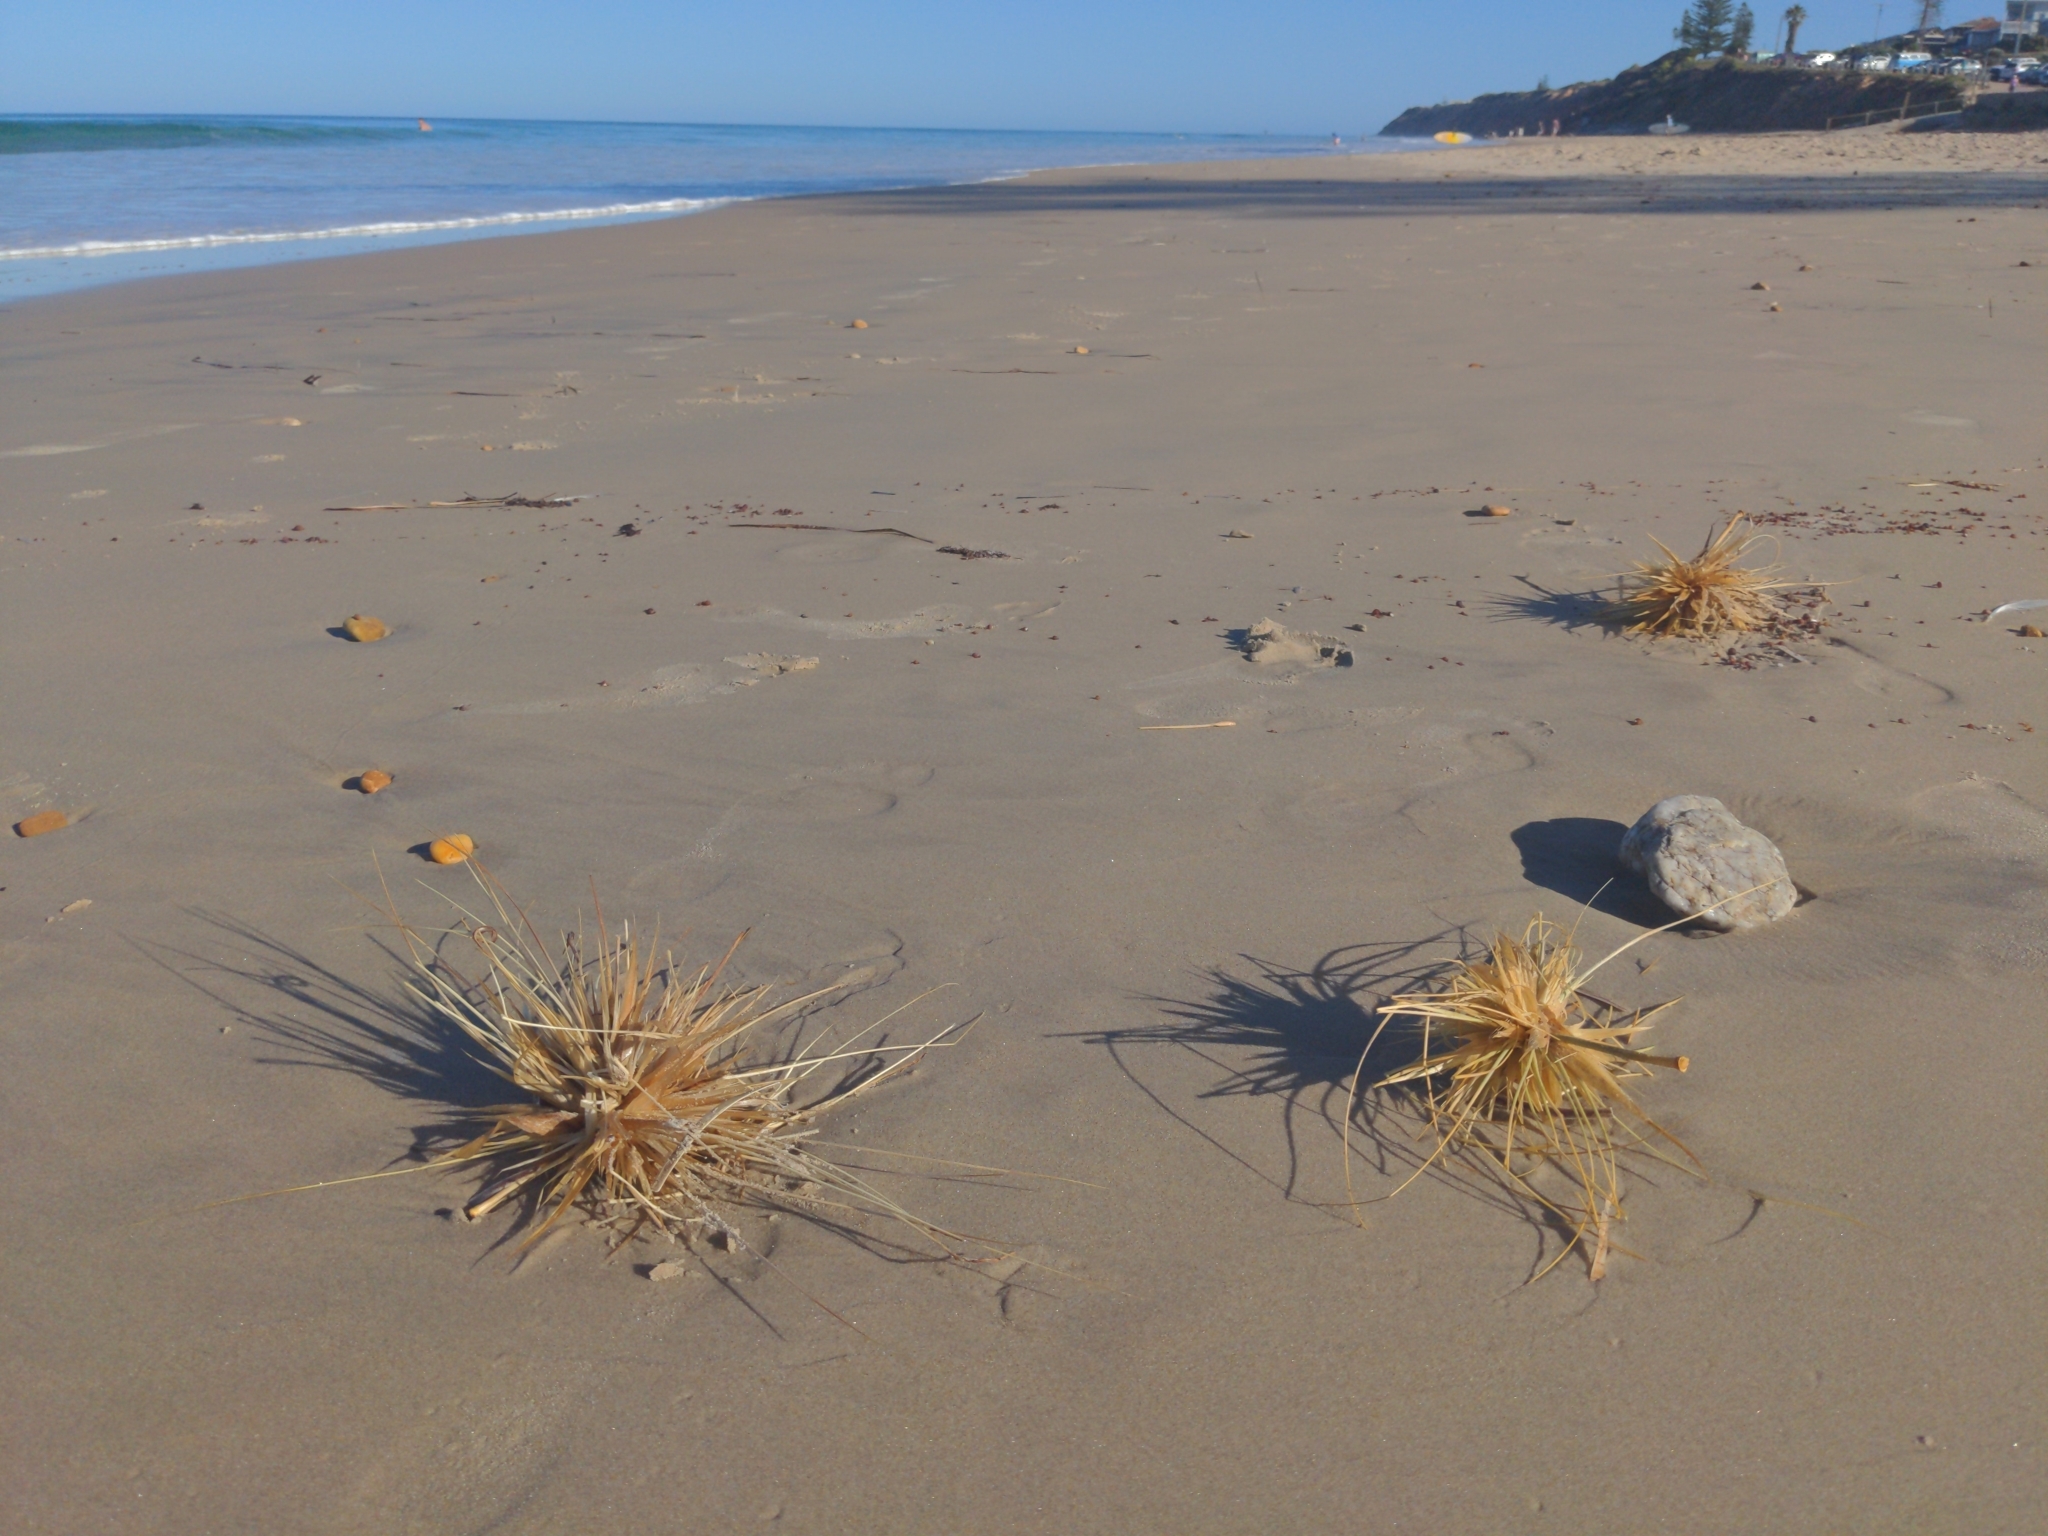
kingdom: Plantae
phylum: Tracheophyta
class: Liliopsida
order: Poales
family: Poaceae
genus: Spinifex
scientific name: Spinifex hirsutus
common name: Hairy spinifex
